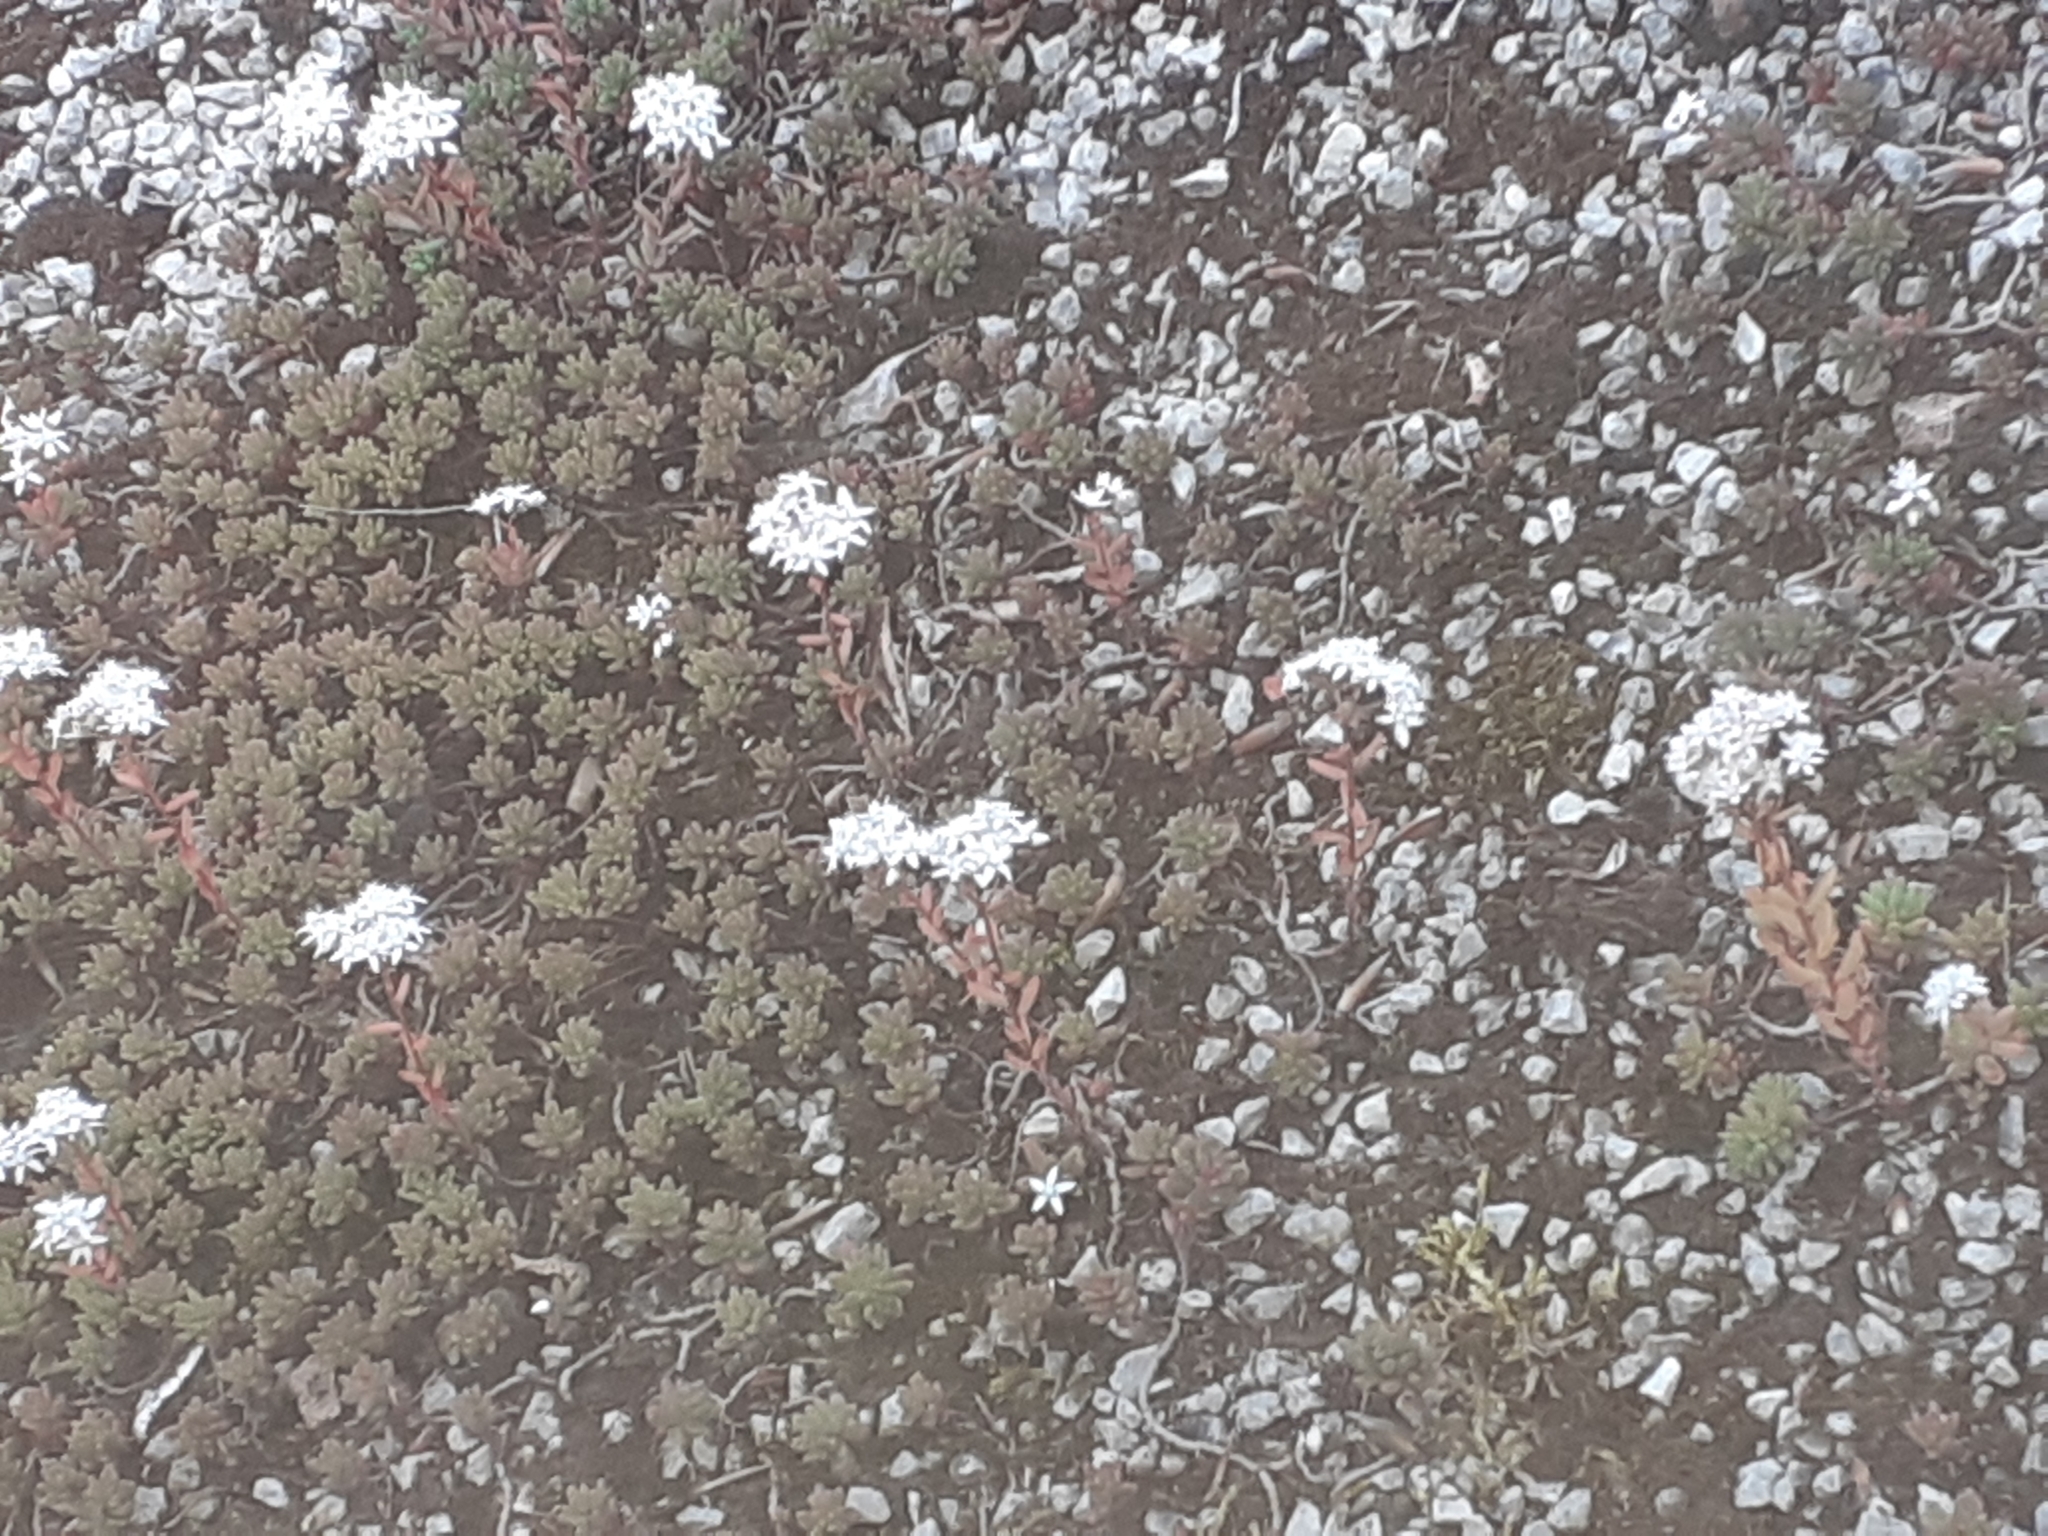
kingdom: Plantae
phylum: Tracheophyta
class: Magnoliopsida
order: Saxifragales
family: Crassulaceae
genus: Sedum
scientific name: Sedum album
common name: White stonecrop
